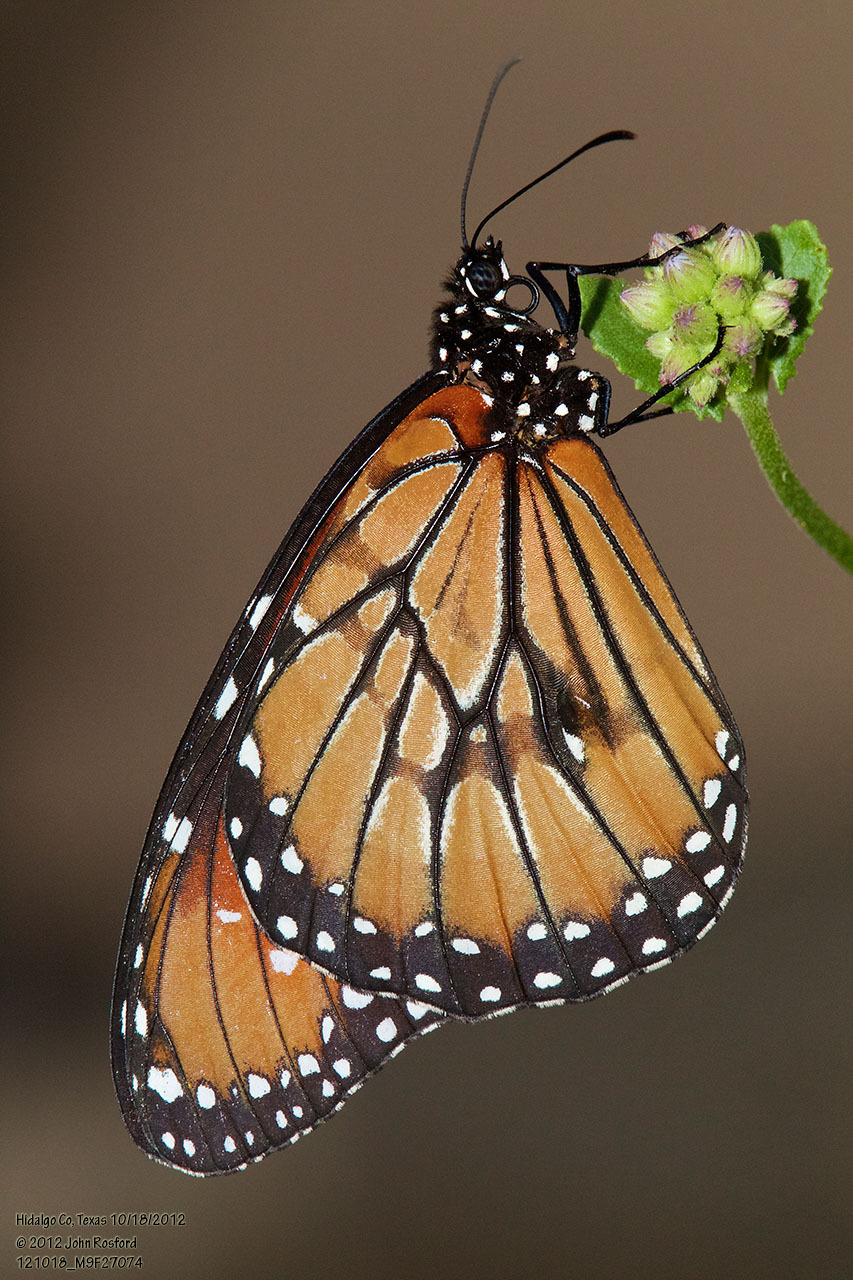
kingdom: Animalia
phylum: Arthropoda
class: Insecta
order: Lepidoptera
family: Nymphalidae
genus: Danaus
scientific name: Danaus eresimus
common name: Soldier
